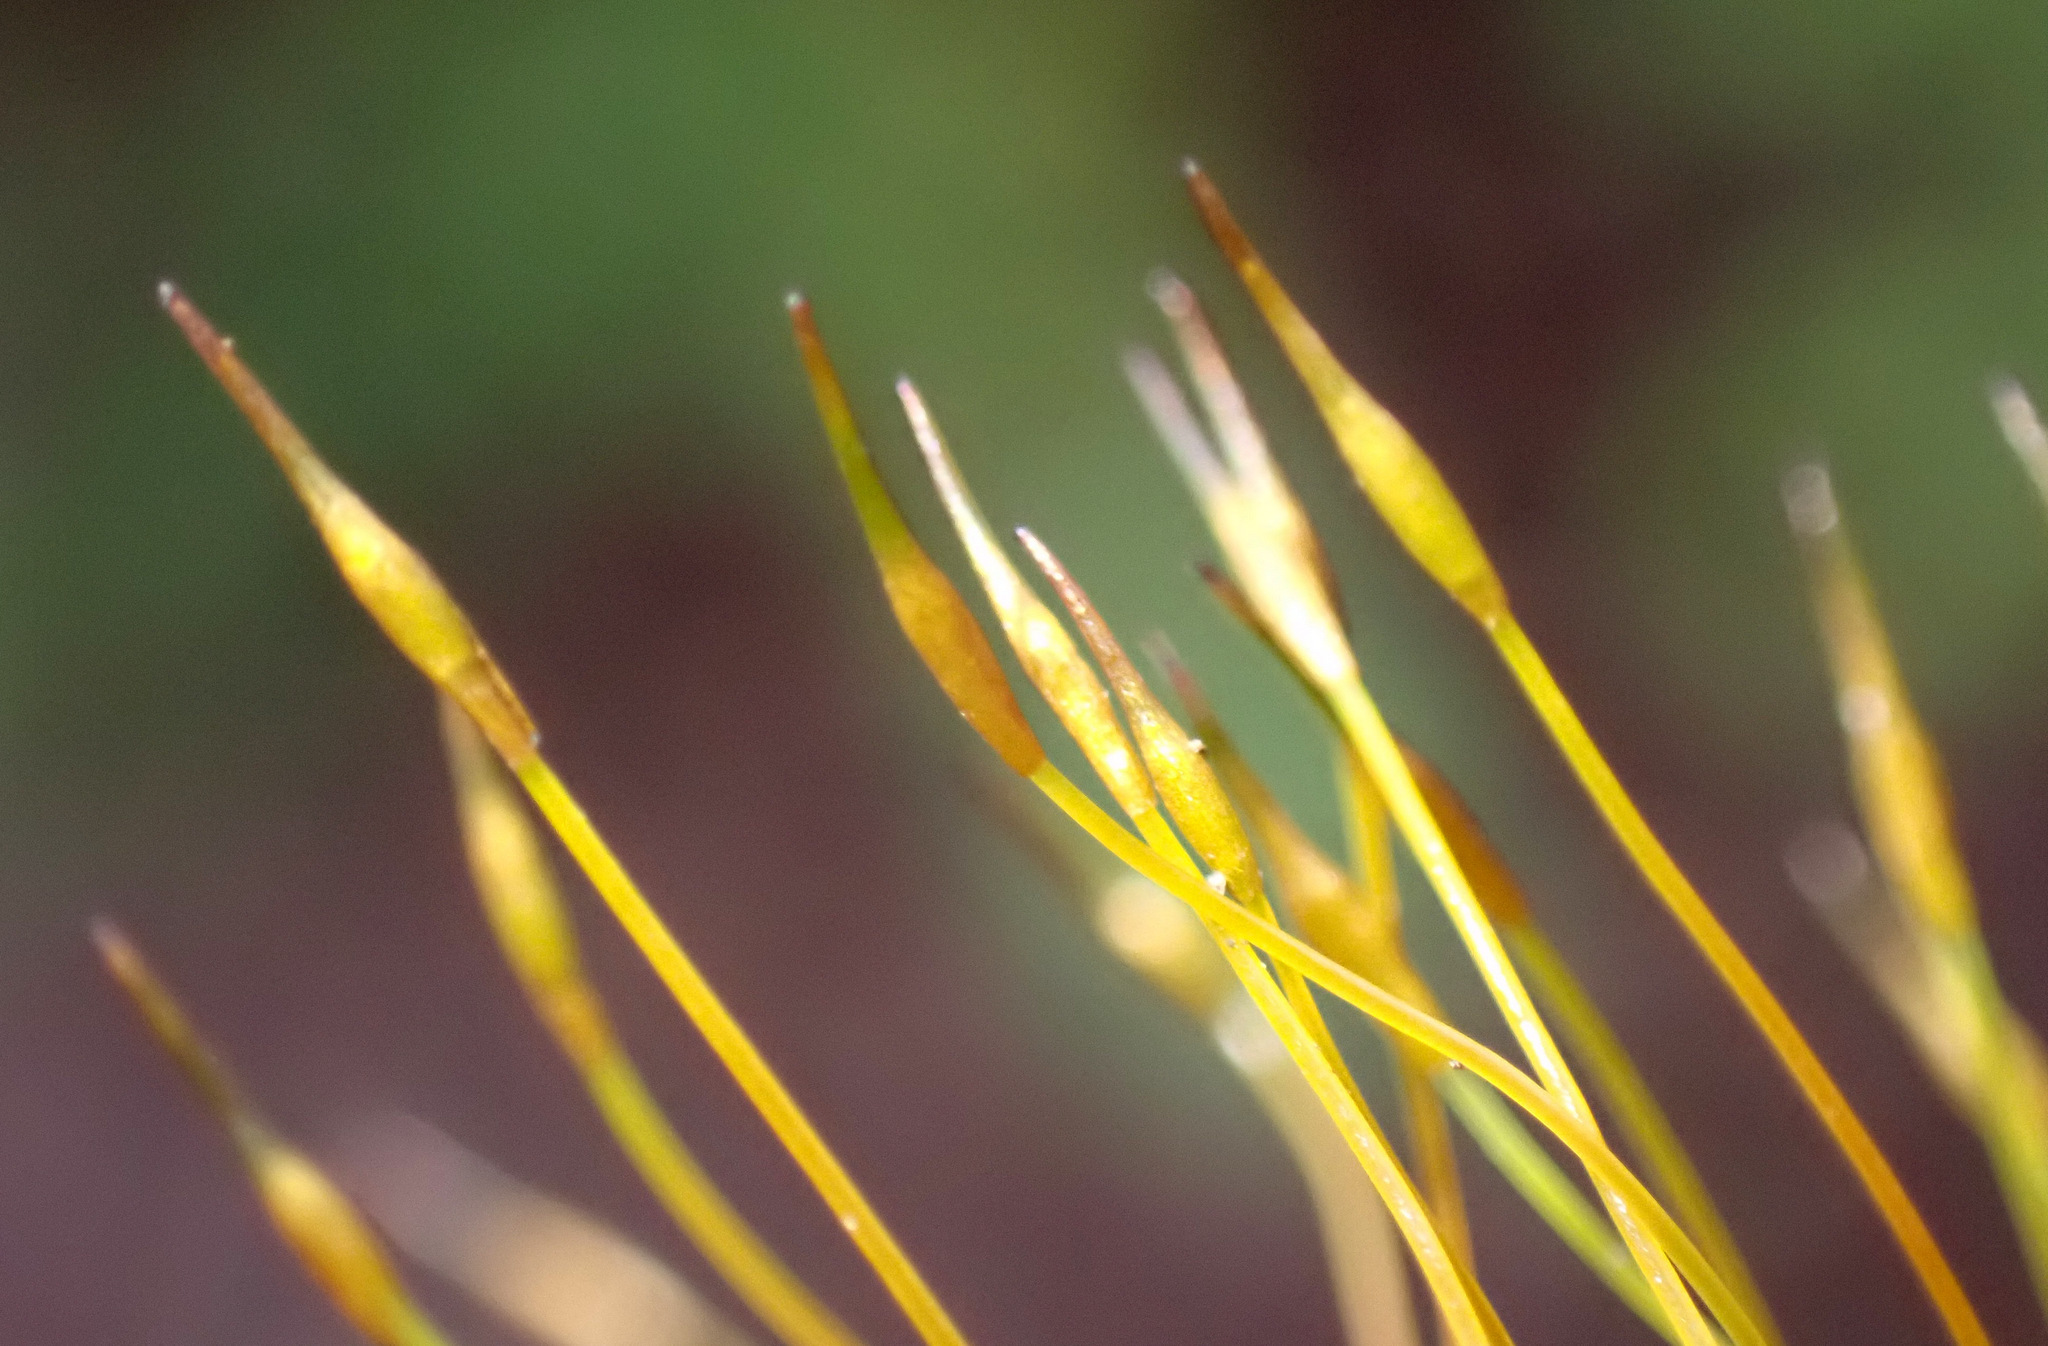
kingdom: Plantae
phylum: Bryophyta
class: Bryopsida
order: Pottiales
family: Pottiaceae
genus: Tortula
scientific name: Tortula muralis
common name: Wall screw-moss
